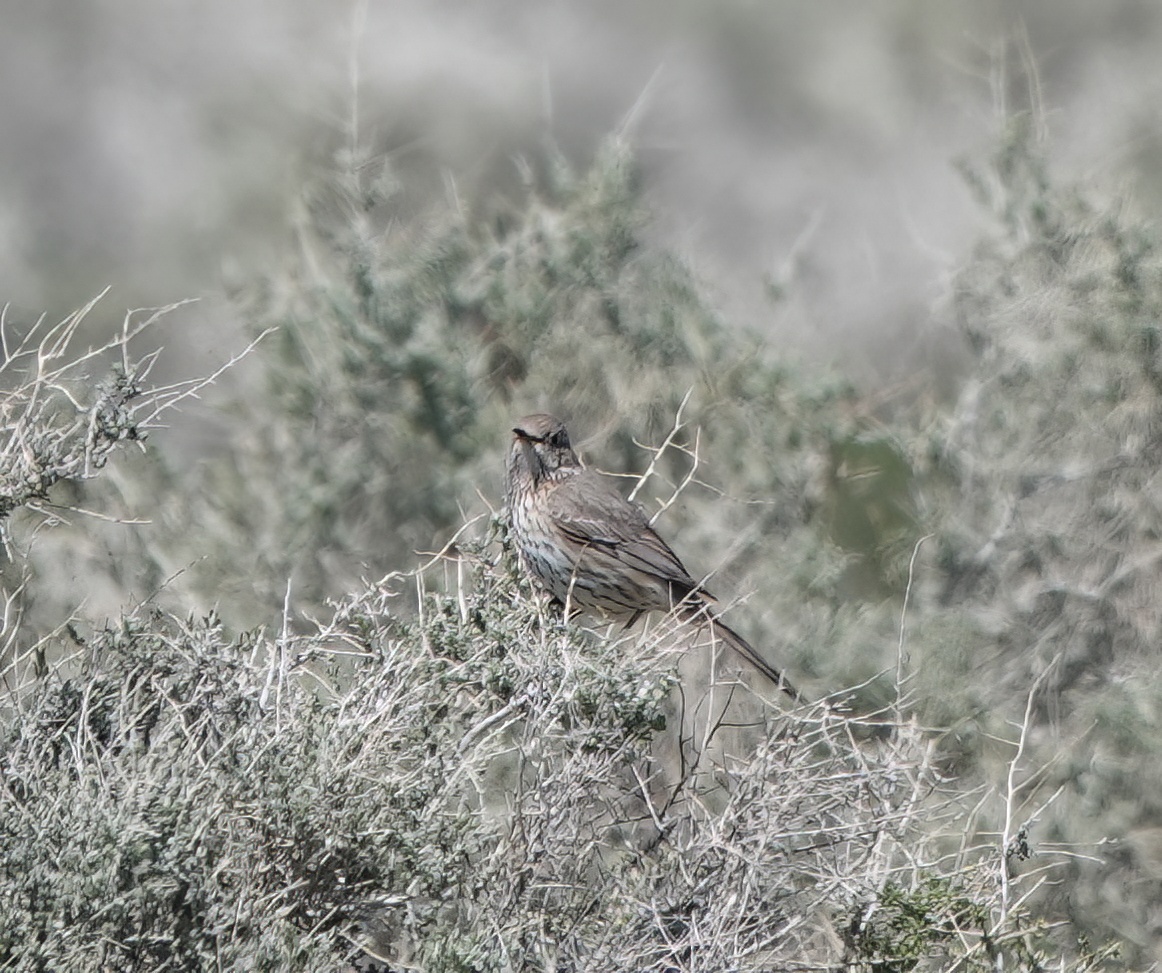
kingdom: Animalia
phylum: Chordata
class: Aves
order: Passeriformes
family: Mimidae
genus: Oreoscoptes
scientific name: Oreoscoptes montanus
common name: Sage thrasher
